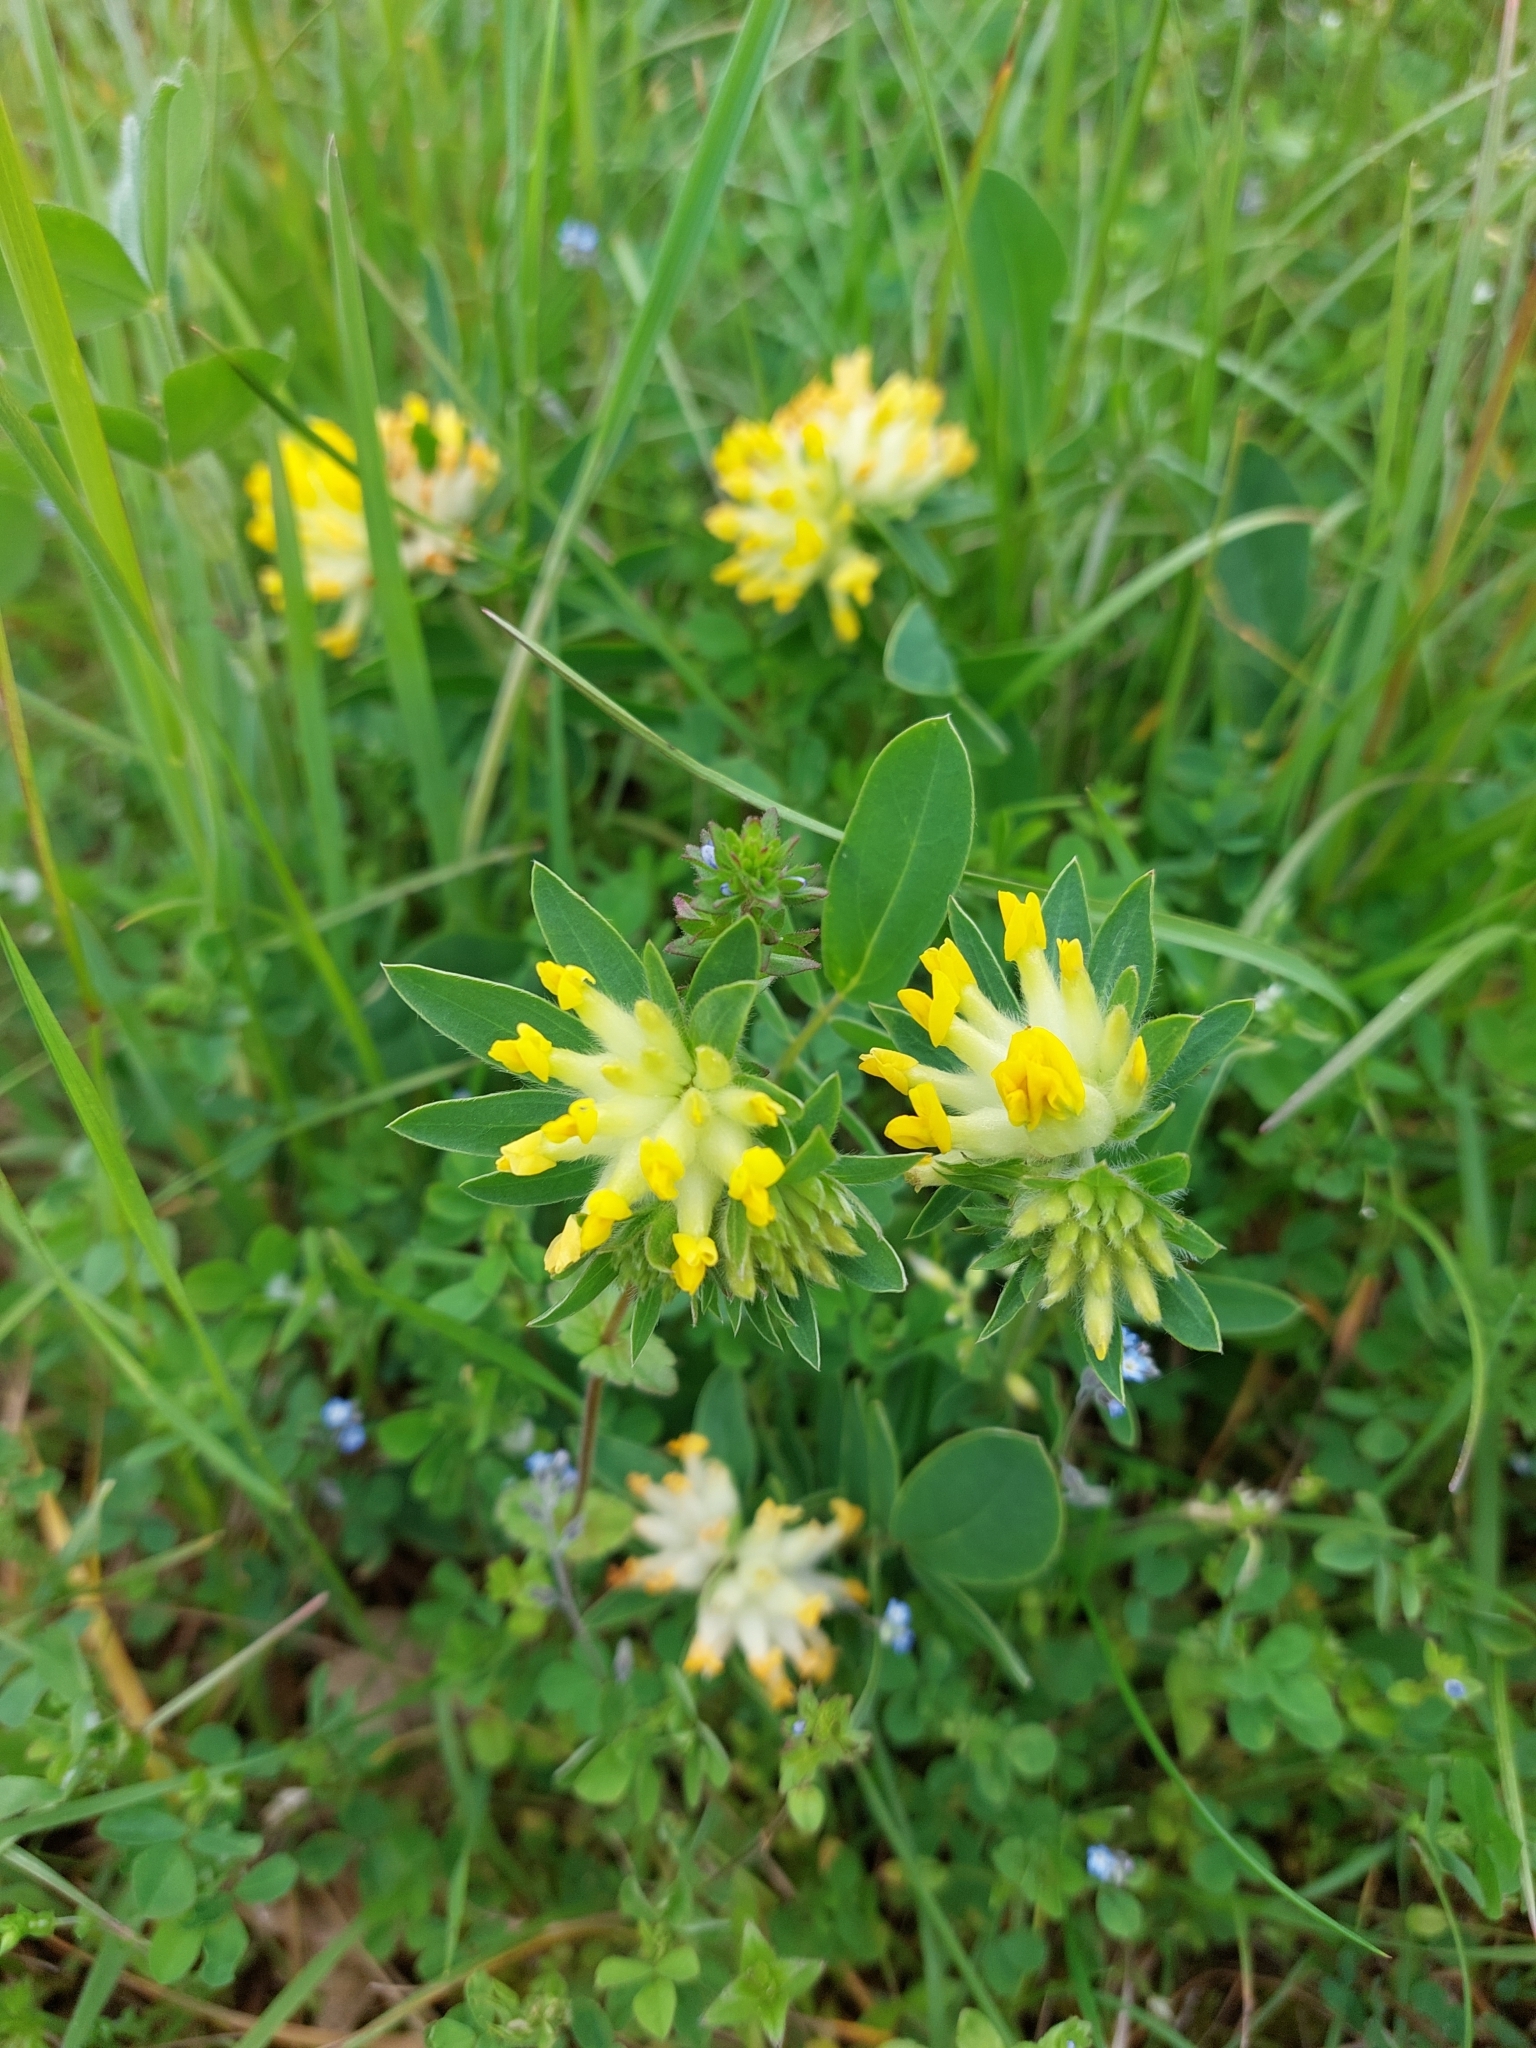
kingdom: Plantae
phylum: Tracheophyta
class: Magnoliopsida
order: Fabales
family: Fabaceae
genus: Anthyllis
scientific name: Anthyllis vulneraria
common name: Kidney vetch
